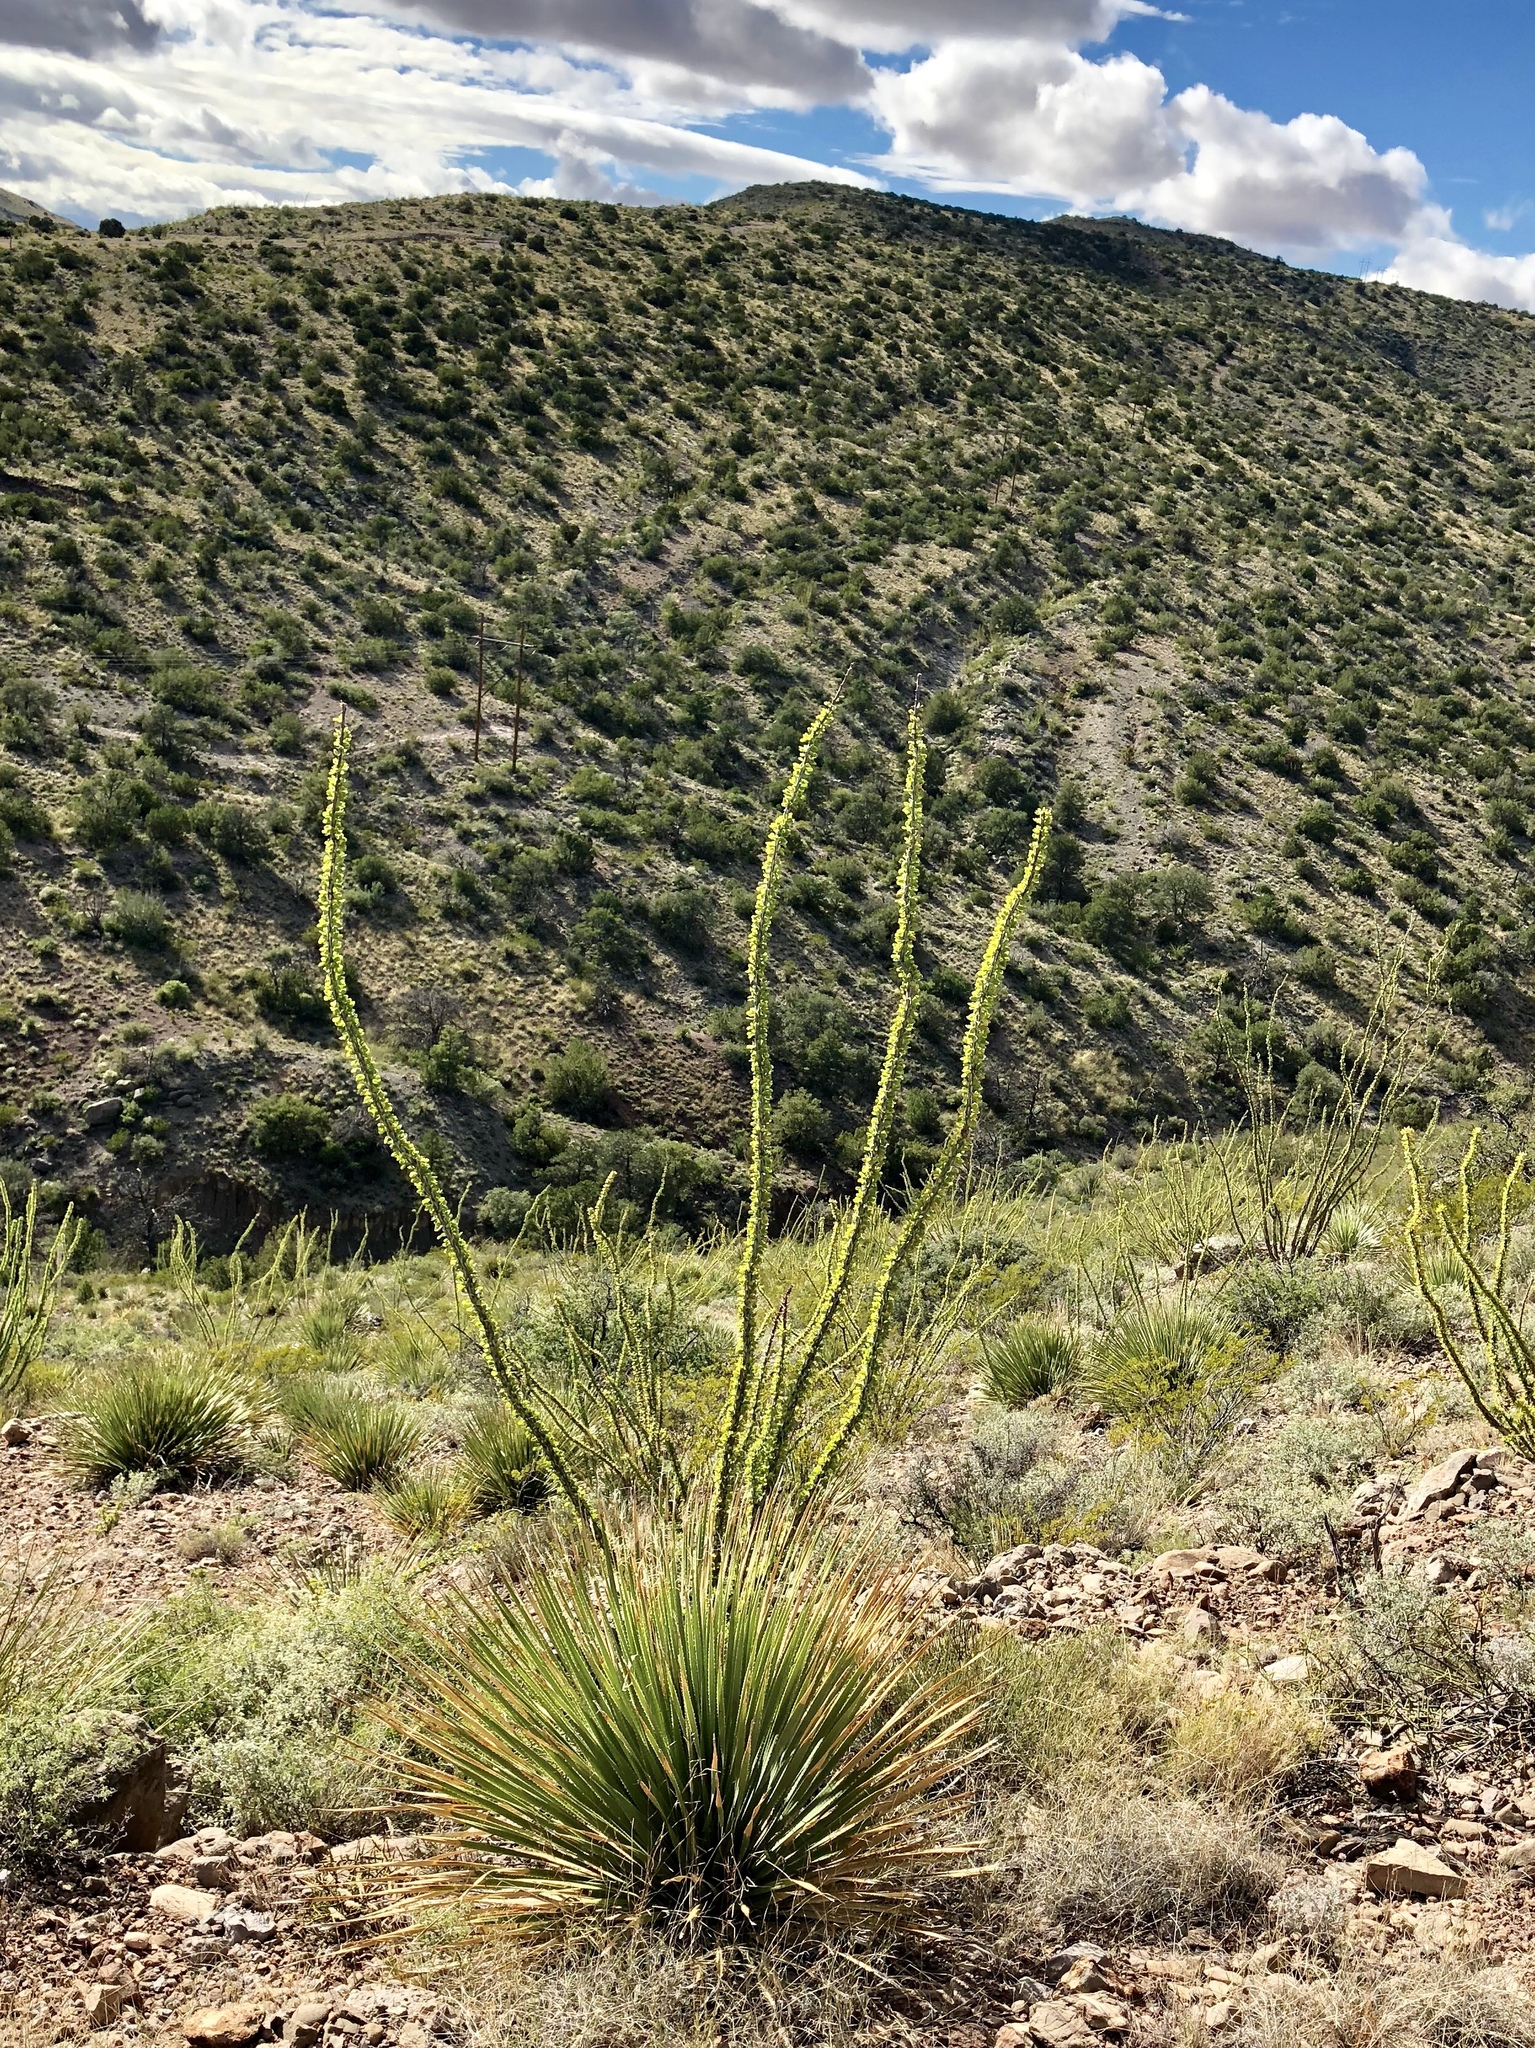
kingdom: Plantae
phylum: Tracheophyta
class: Magnoliopsida
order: Ericales
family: Fouquieriaceae
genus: Fouquieria
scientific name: Fouquieria splendens
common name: Vine-cactus
